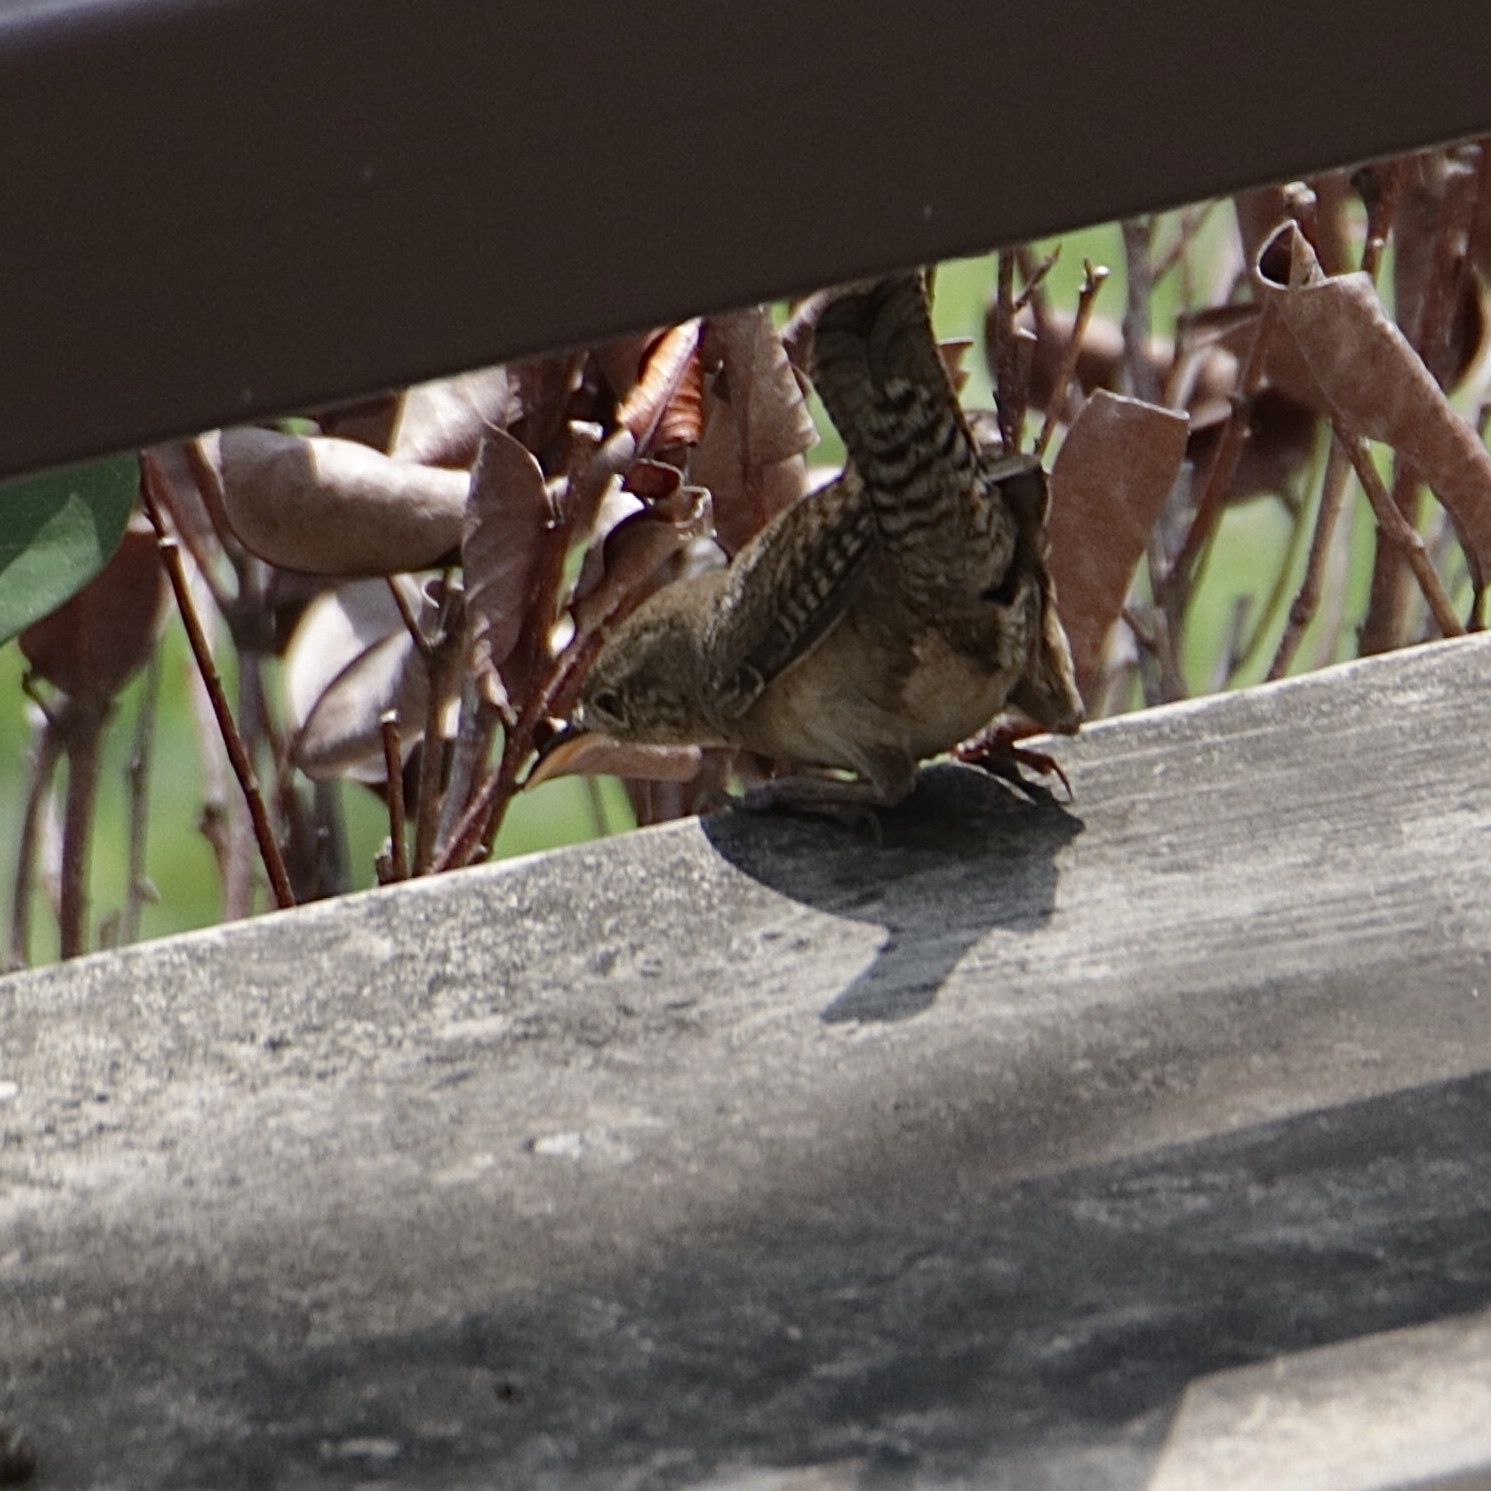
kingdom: Animalia
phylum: Chordata
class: Aves
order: Passeriformes
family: Troglodytidae
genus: Troglodytes
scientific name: Troglodytes aedon
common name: House wren
